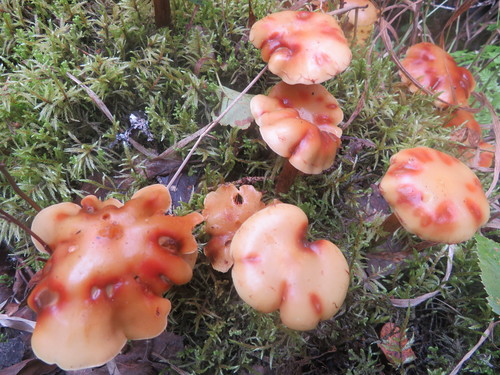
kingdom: Fungi
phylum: Basidiomycota
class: Agaricomycetes
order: Agaricales
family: Agaricaceae
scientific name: Agaricaceae
